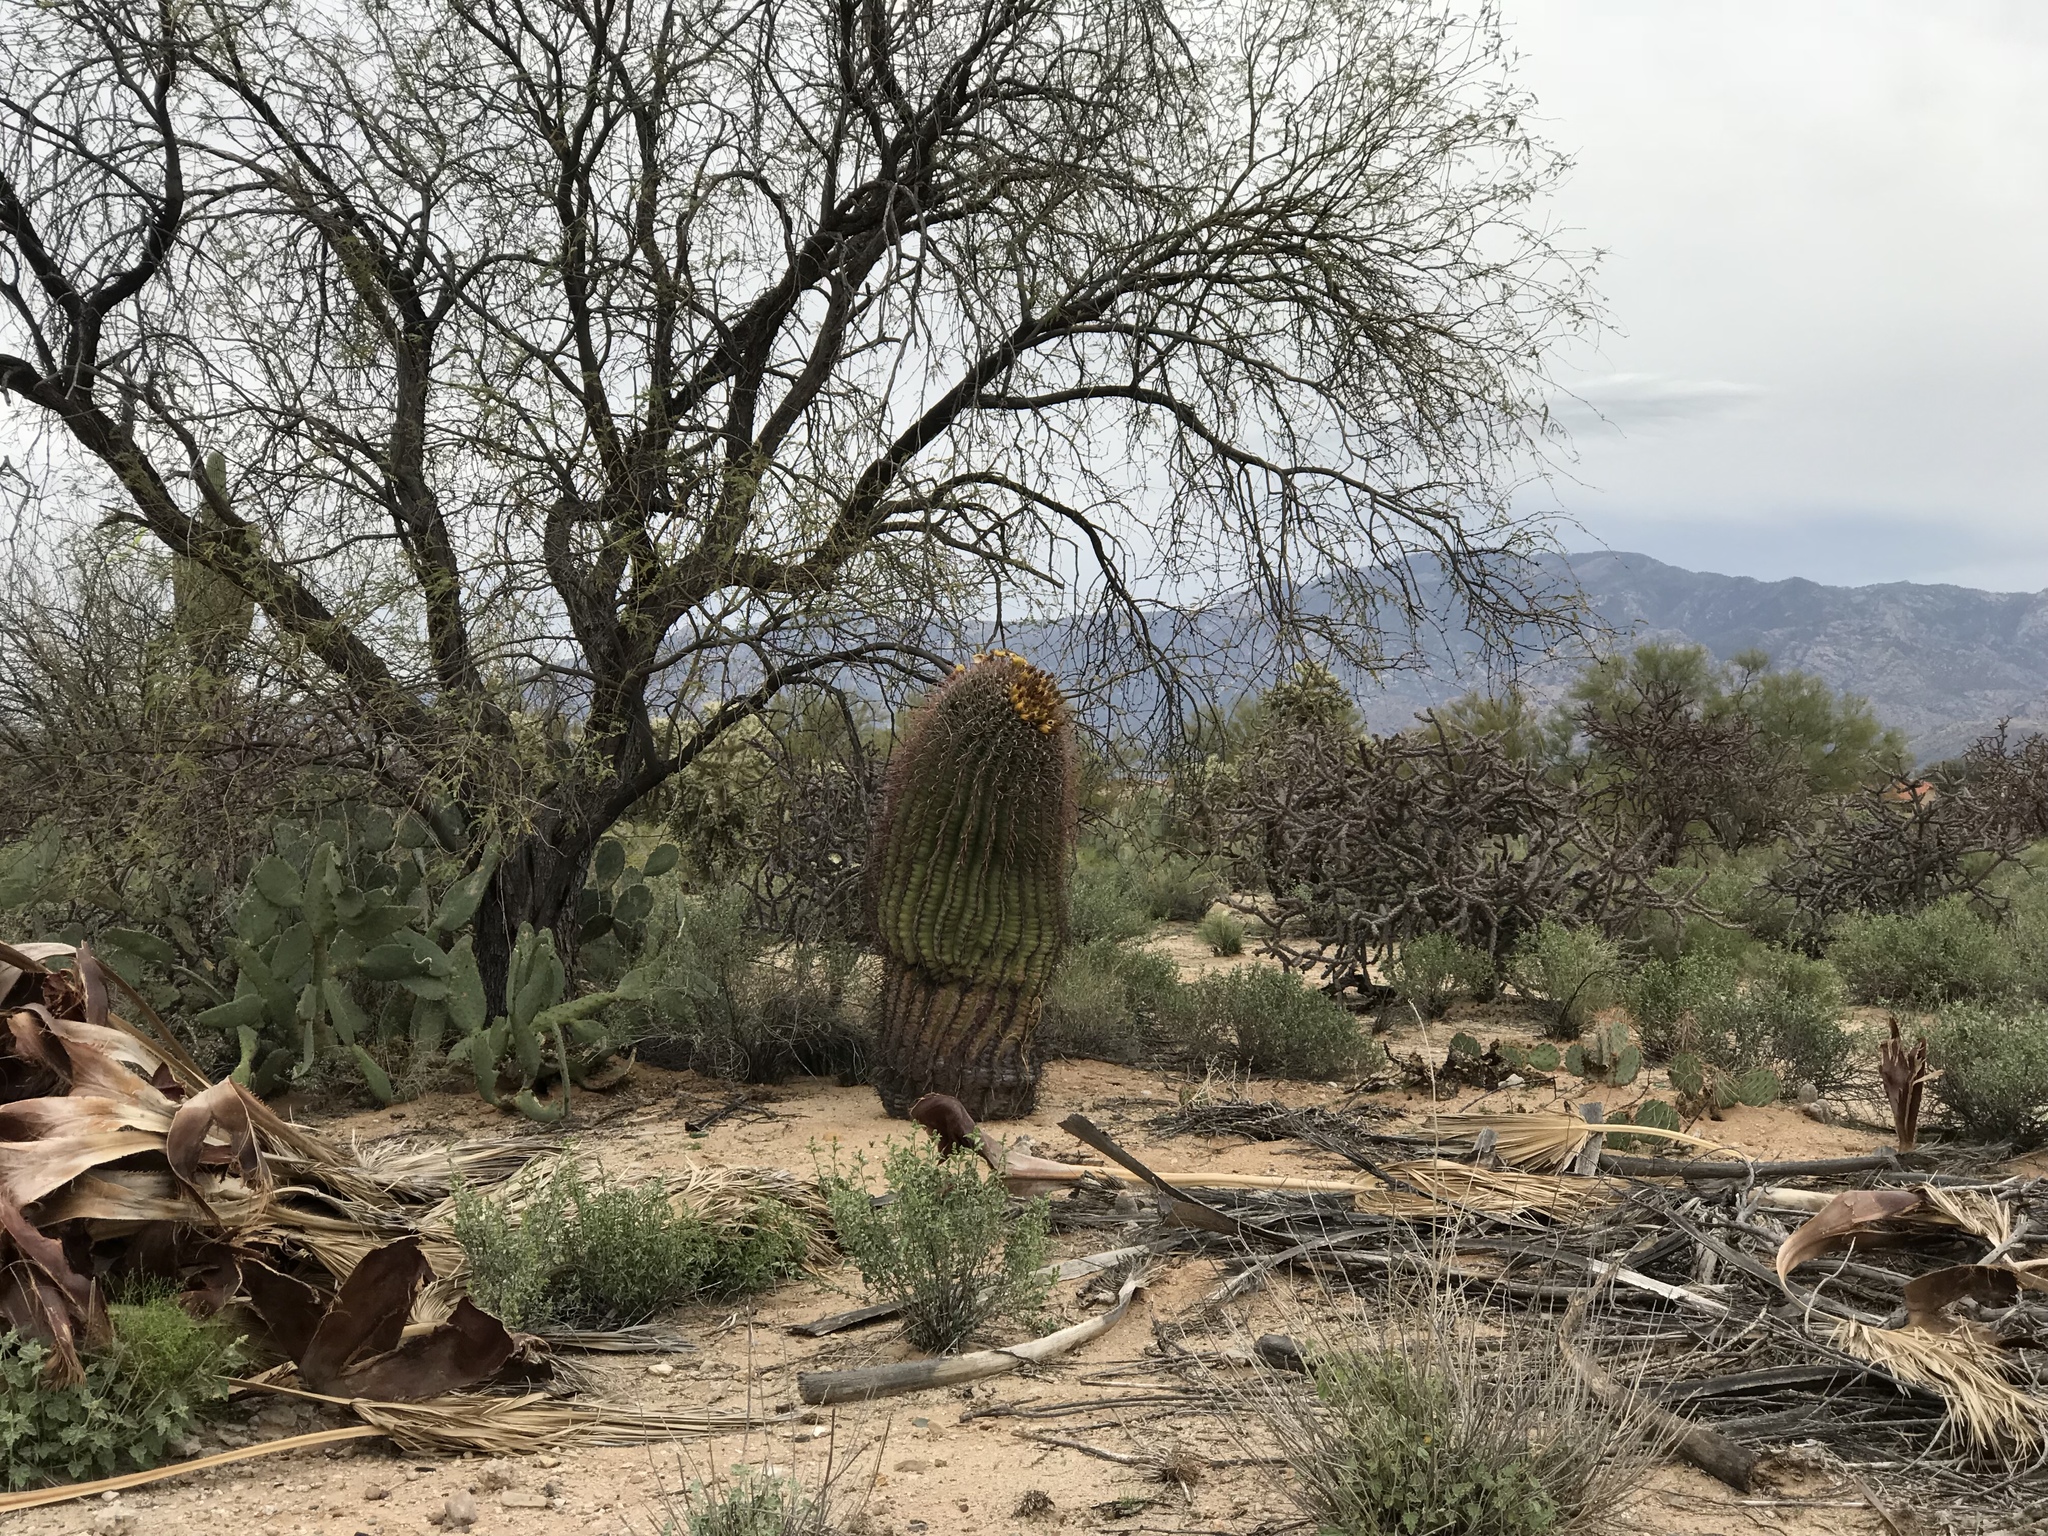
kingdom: Plantae
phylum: Tracheophyta
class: Magnoliopsida
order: Caryophyllales
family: Cactaceae
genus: Ferocactus
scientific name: Ferocactus wislizeni
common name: Candy barrel cactus
